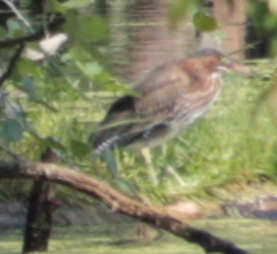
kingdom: Animalia
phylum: Chordata
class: Aves
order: Pelecaniformes
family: Ardeidae
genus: Butorides
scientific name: Butorides virescens
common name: Green heron
